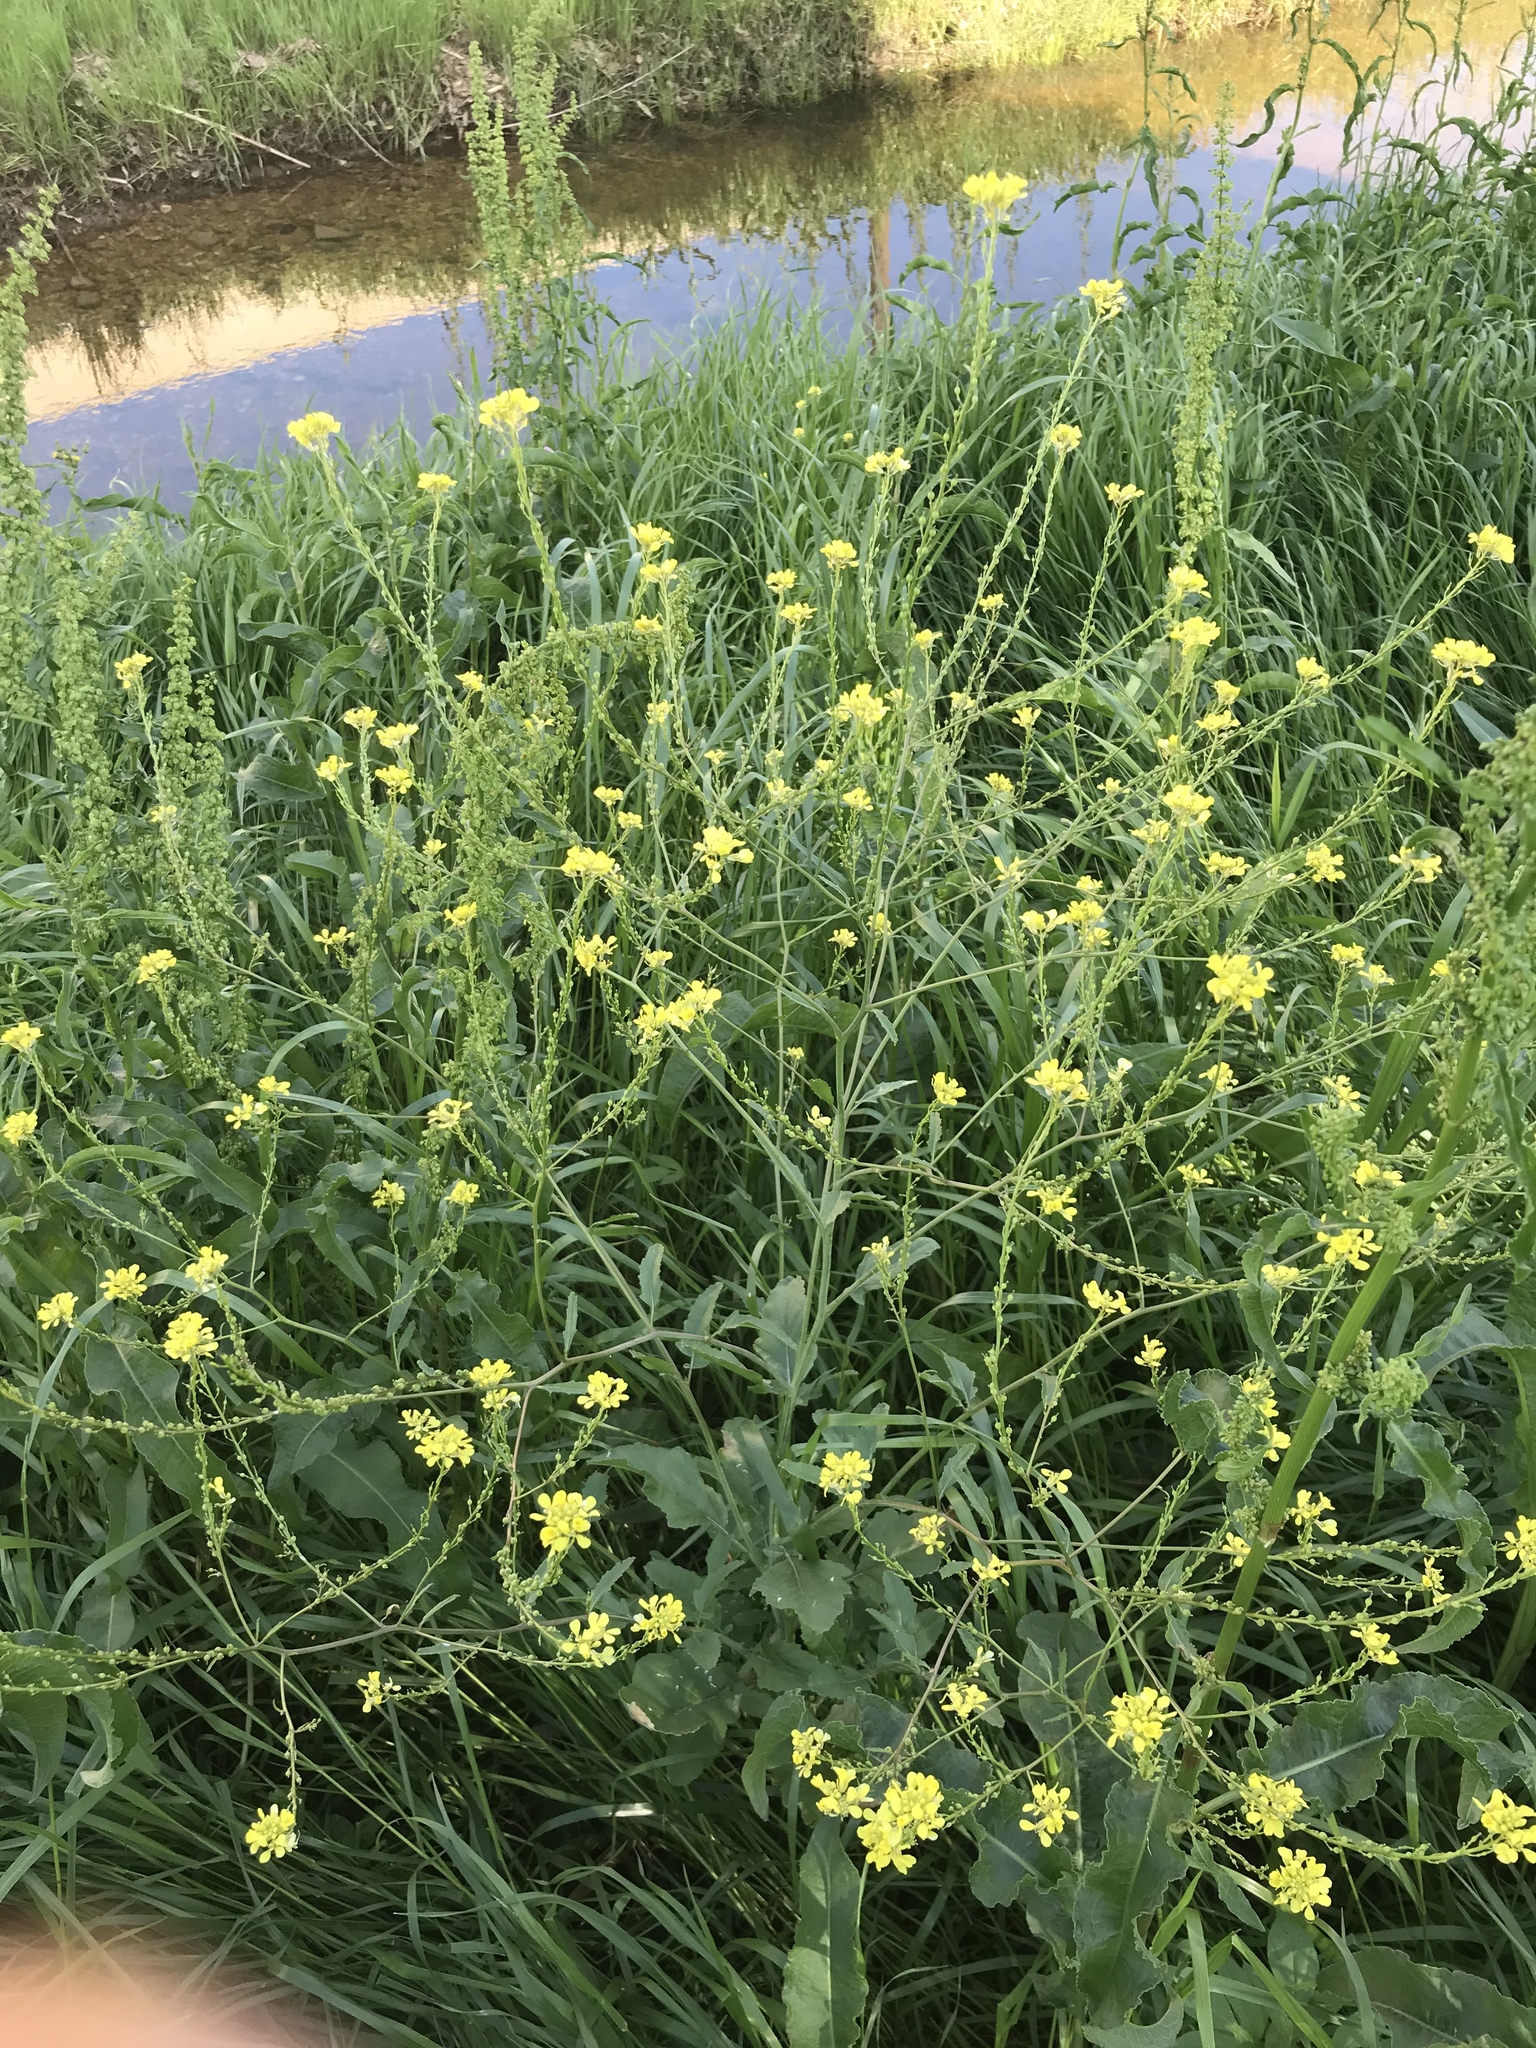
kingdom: Plantae
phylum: Tracheophyta
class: Magnoliopsida
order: Brassicales
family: Brassicaceae
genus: Rapistrum
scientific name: Rapistrum rugosum
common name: Annual bastardcabbage
